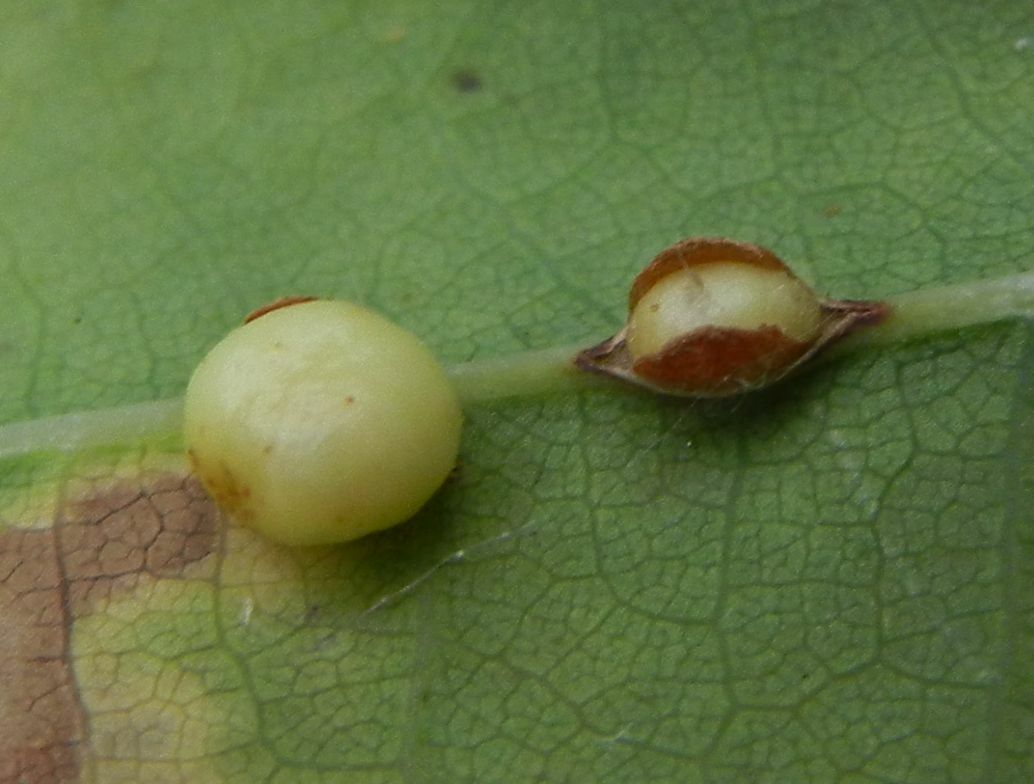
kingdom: Animalia
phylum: Arthropoda
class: Insecta
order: Hymenoptera
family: Cynipidae
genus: Neuroterus
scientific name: Neuroterus anthracinus
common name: Oyster gall
